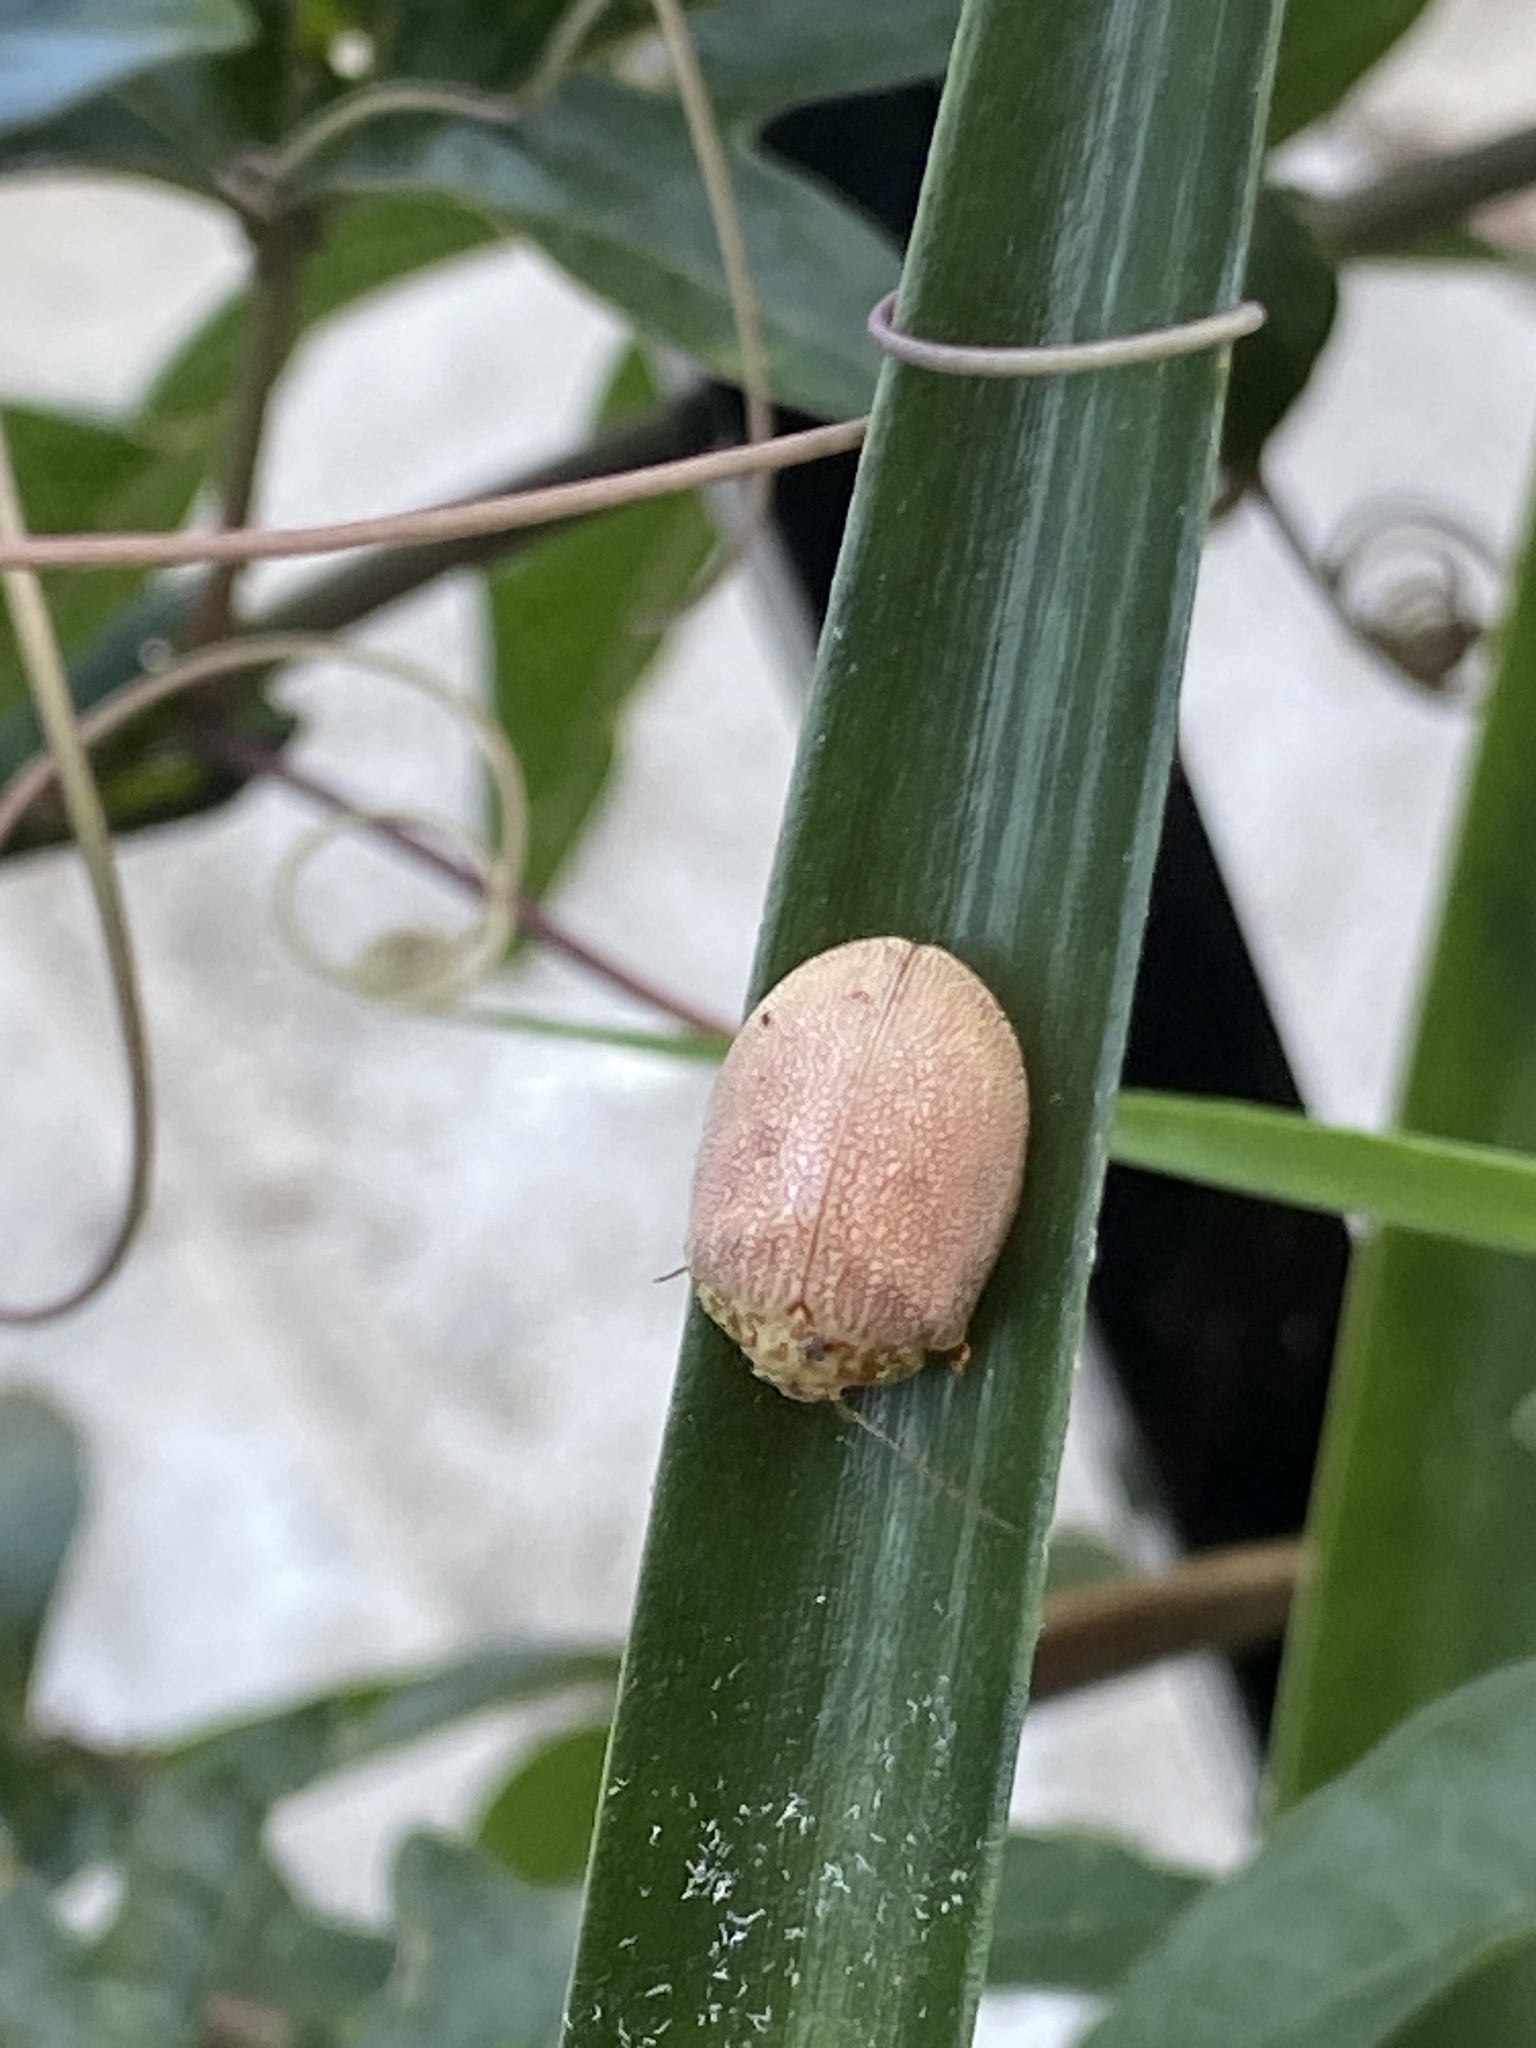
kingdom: Animalia
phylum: Arthropoda
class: Insecta
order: Coleoptera
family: Chrysomelidae
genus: Paropsis
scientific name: Paropsis
